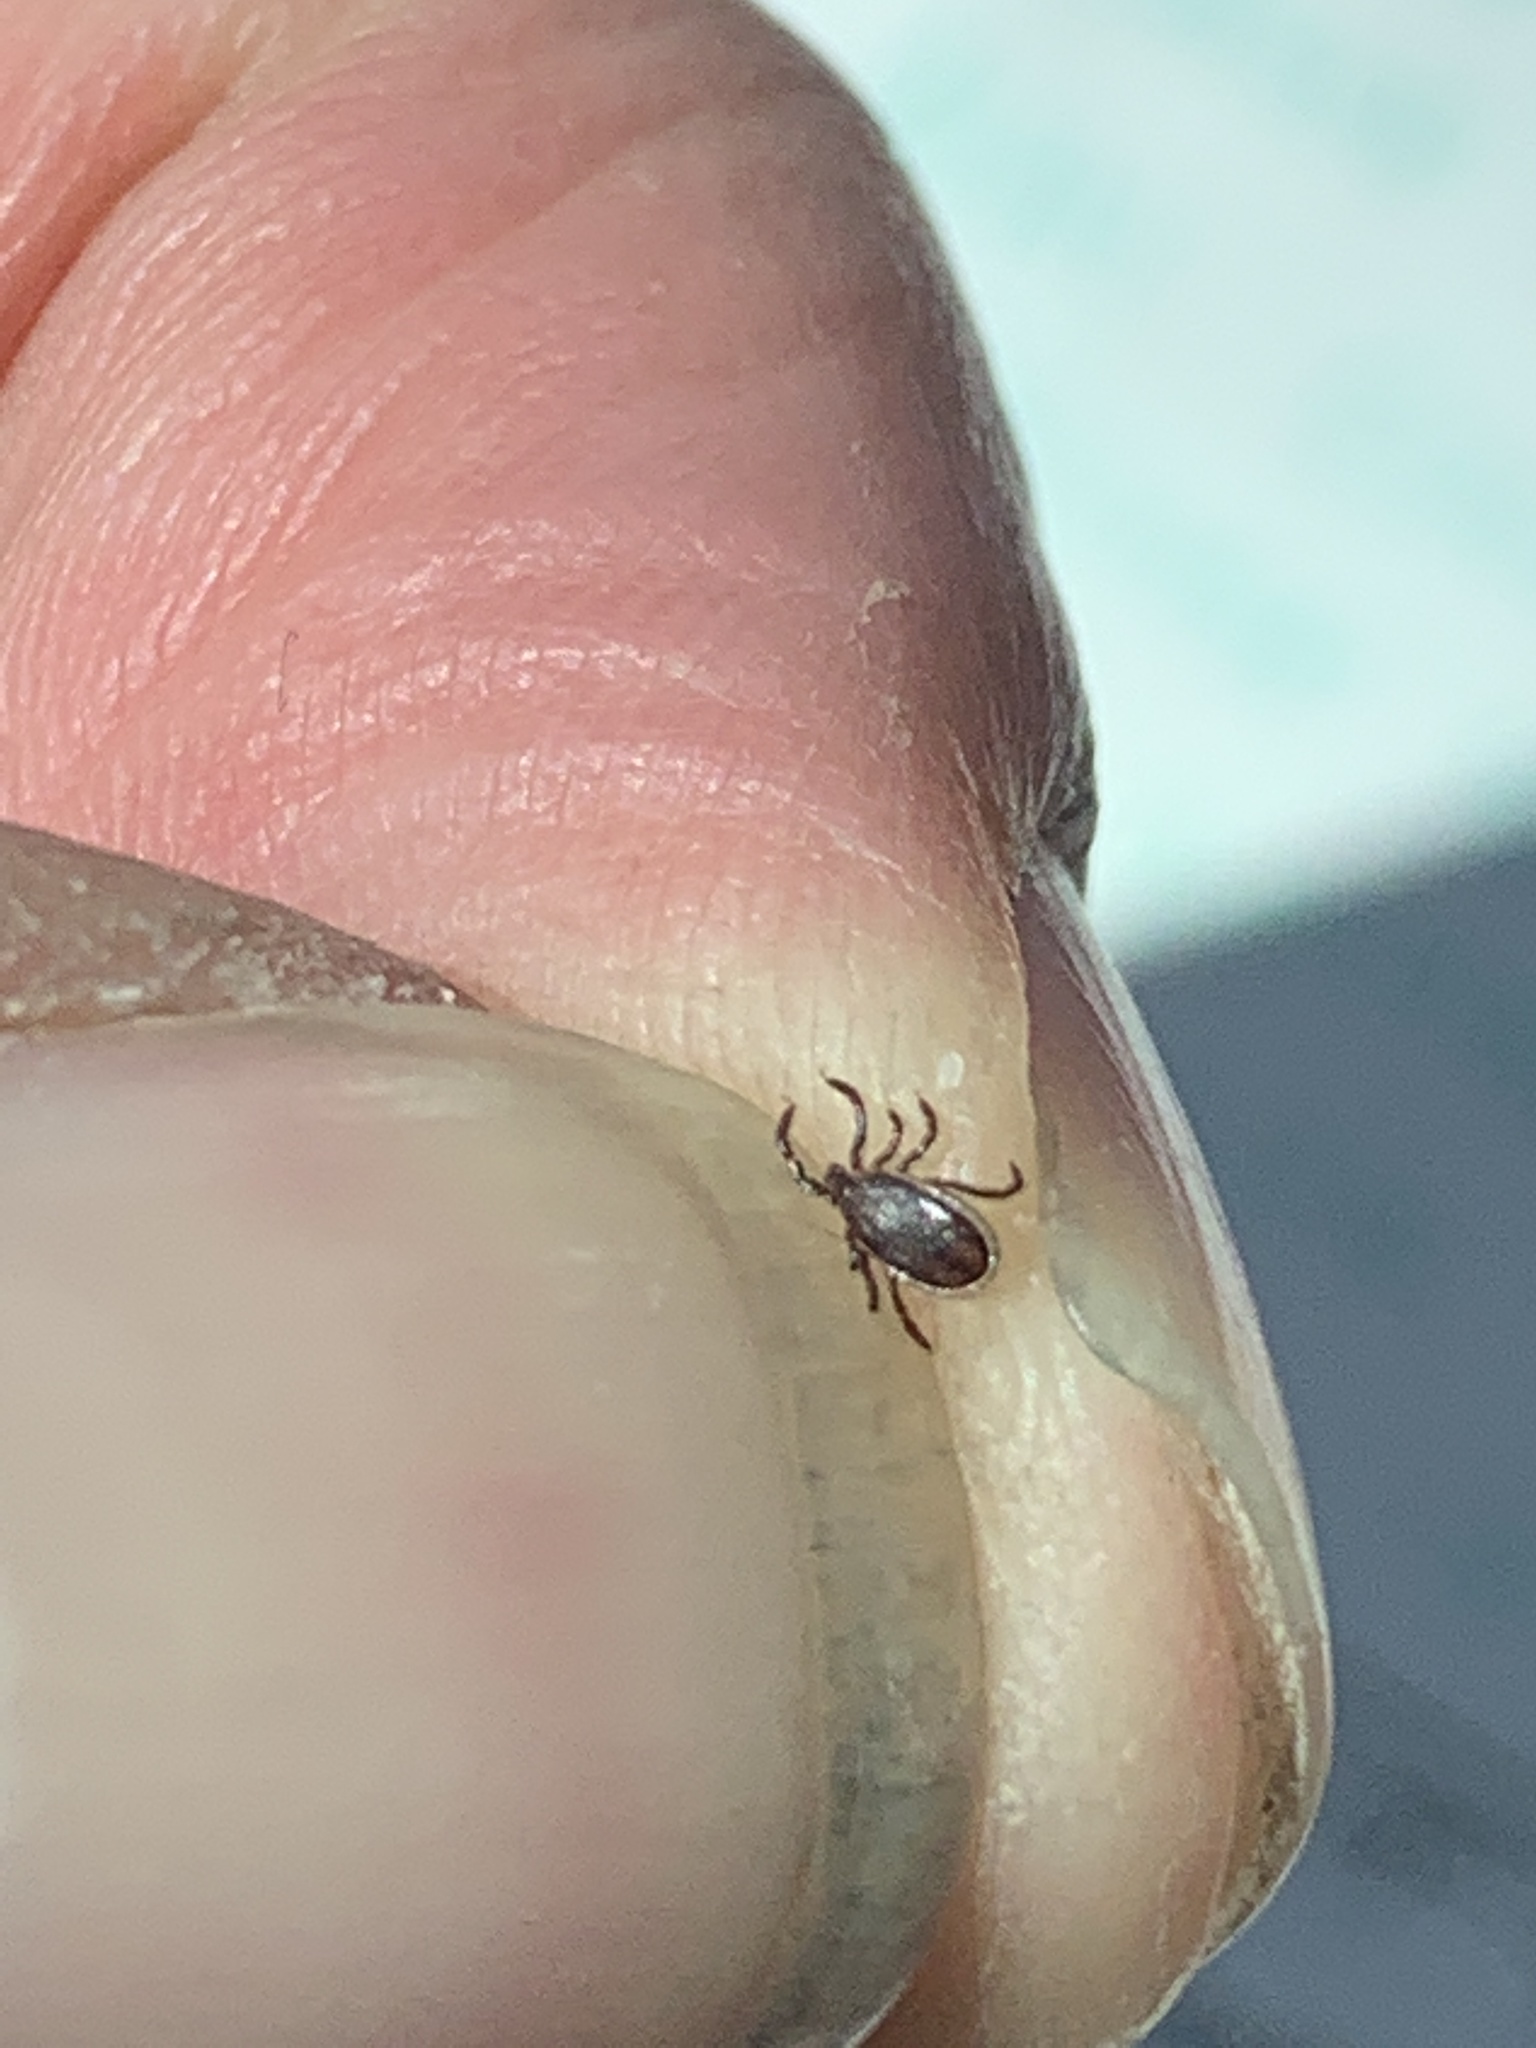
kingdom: Animalia
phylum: Arthropoda
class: Arachnida
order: Ixodida
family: Ixodidae
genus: Ixodes
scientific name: Ixodes scapularis
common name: Black legged tick
